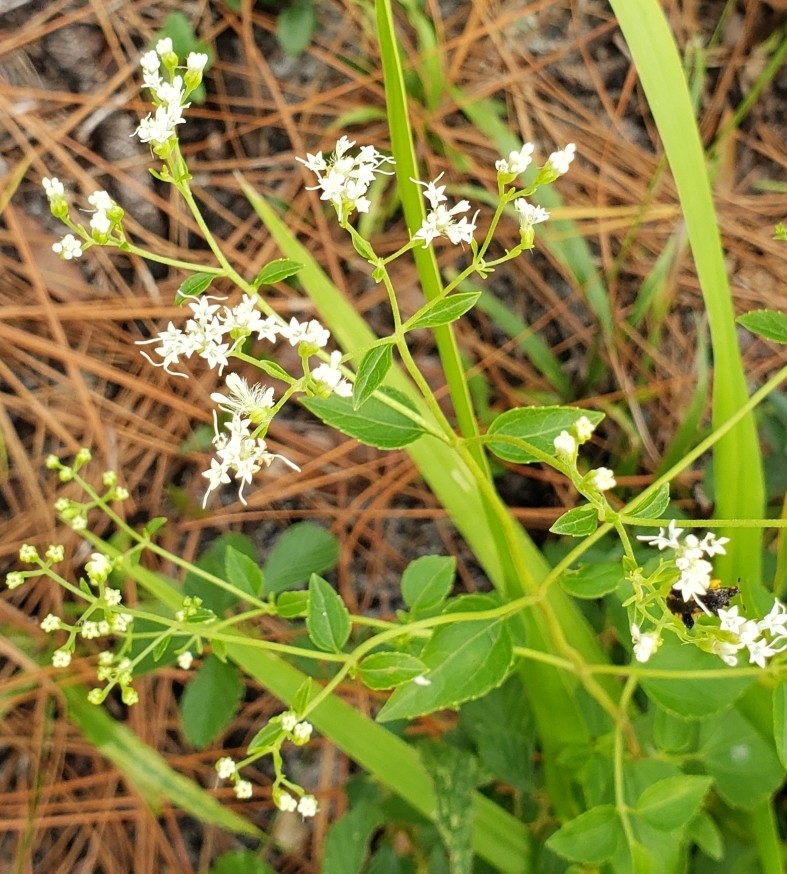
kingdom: Plantae
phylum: Tracheophyta
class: Magnoliopsida
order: Asterales
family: Asteraceae
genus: Ageratina
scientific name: Ageratina jucunda
